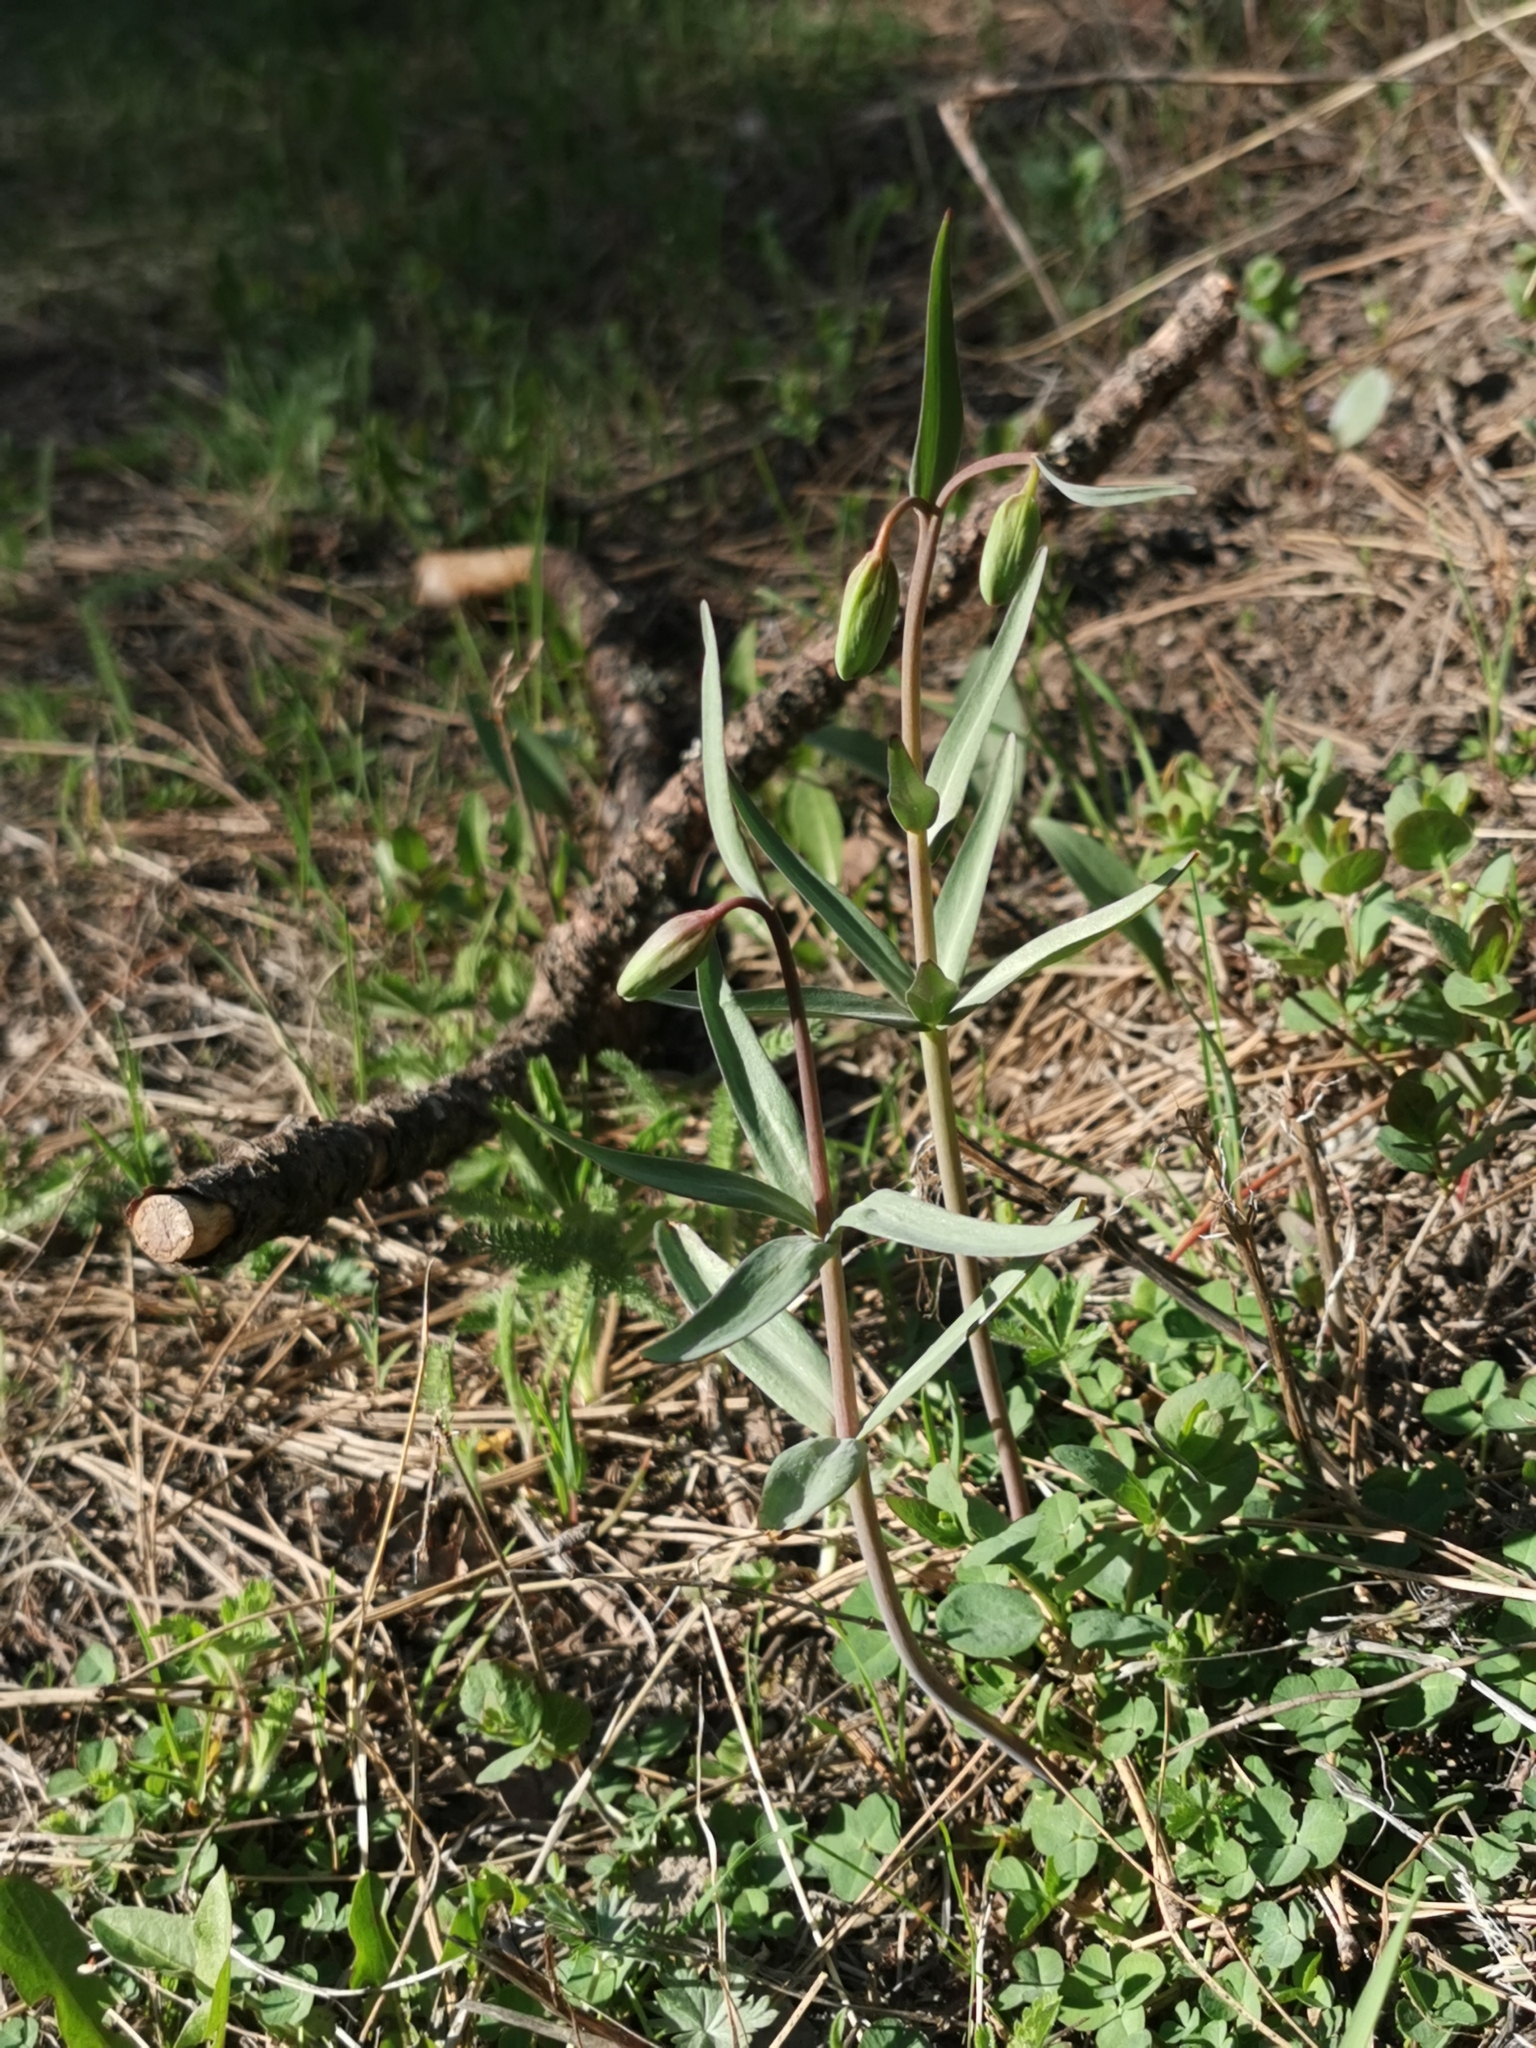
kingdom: Plantae
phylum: Tracheophyta
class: Liliopsida
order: Liliales
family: Liliaceae
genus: Fritillaria
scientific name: Fritillaria affinis
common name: Ojai fritillary
